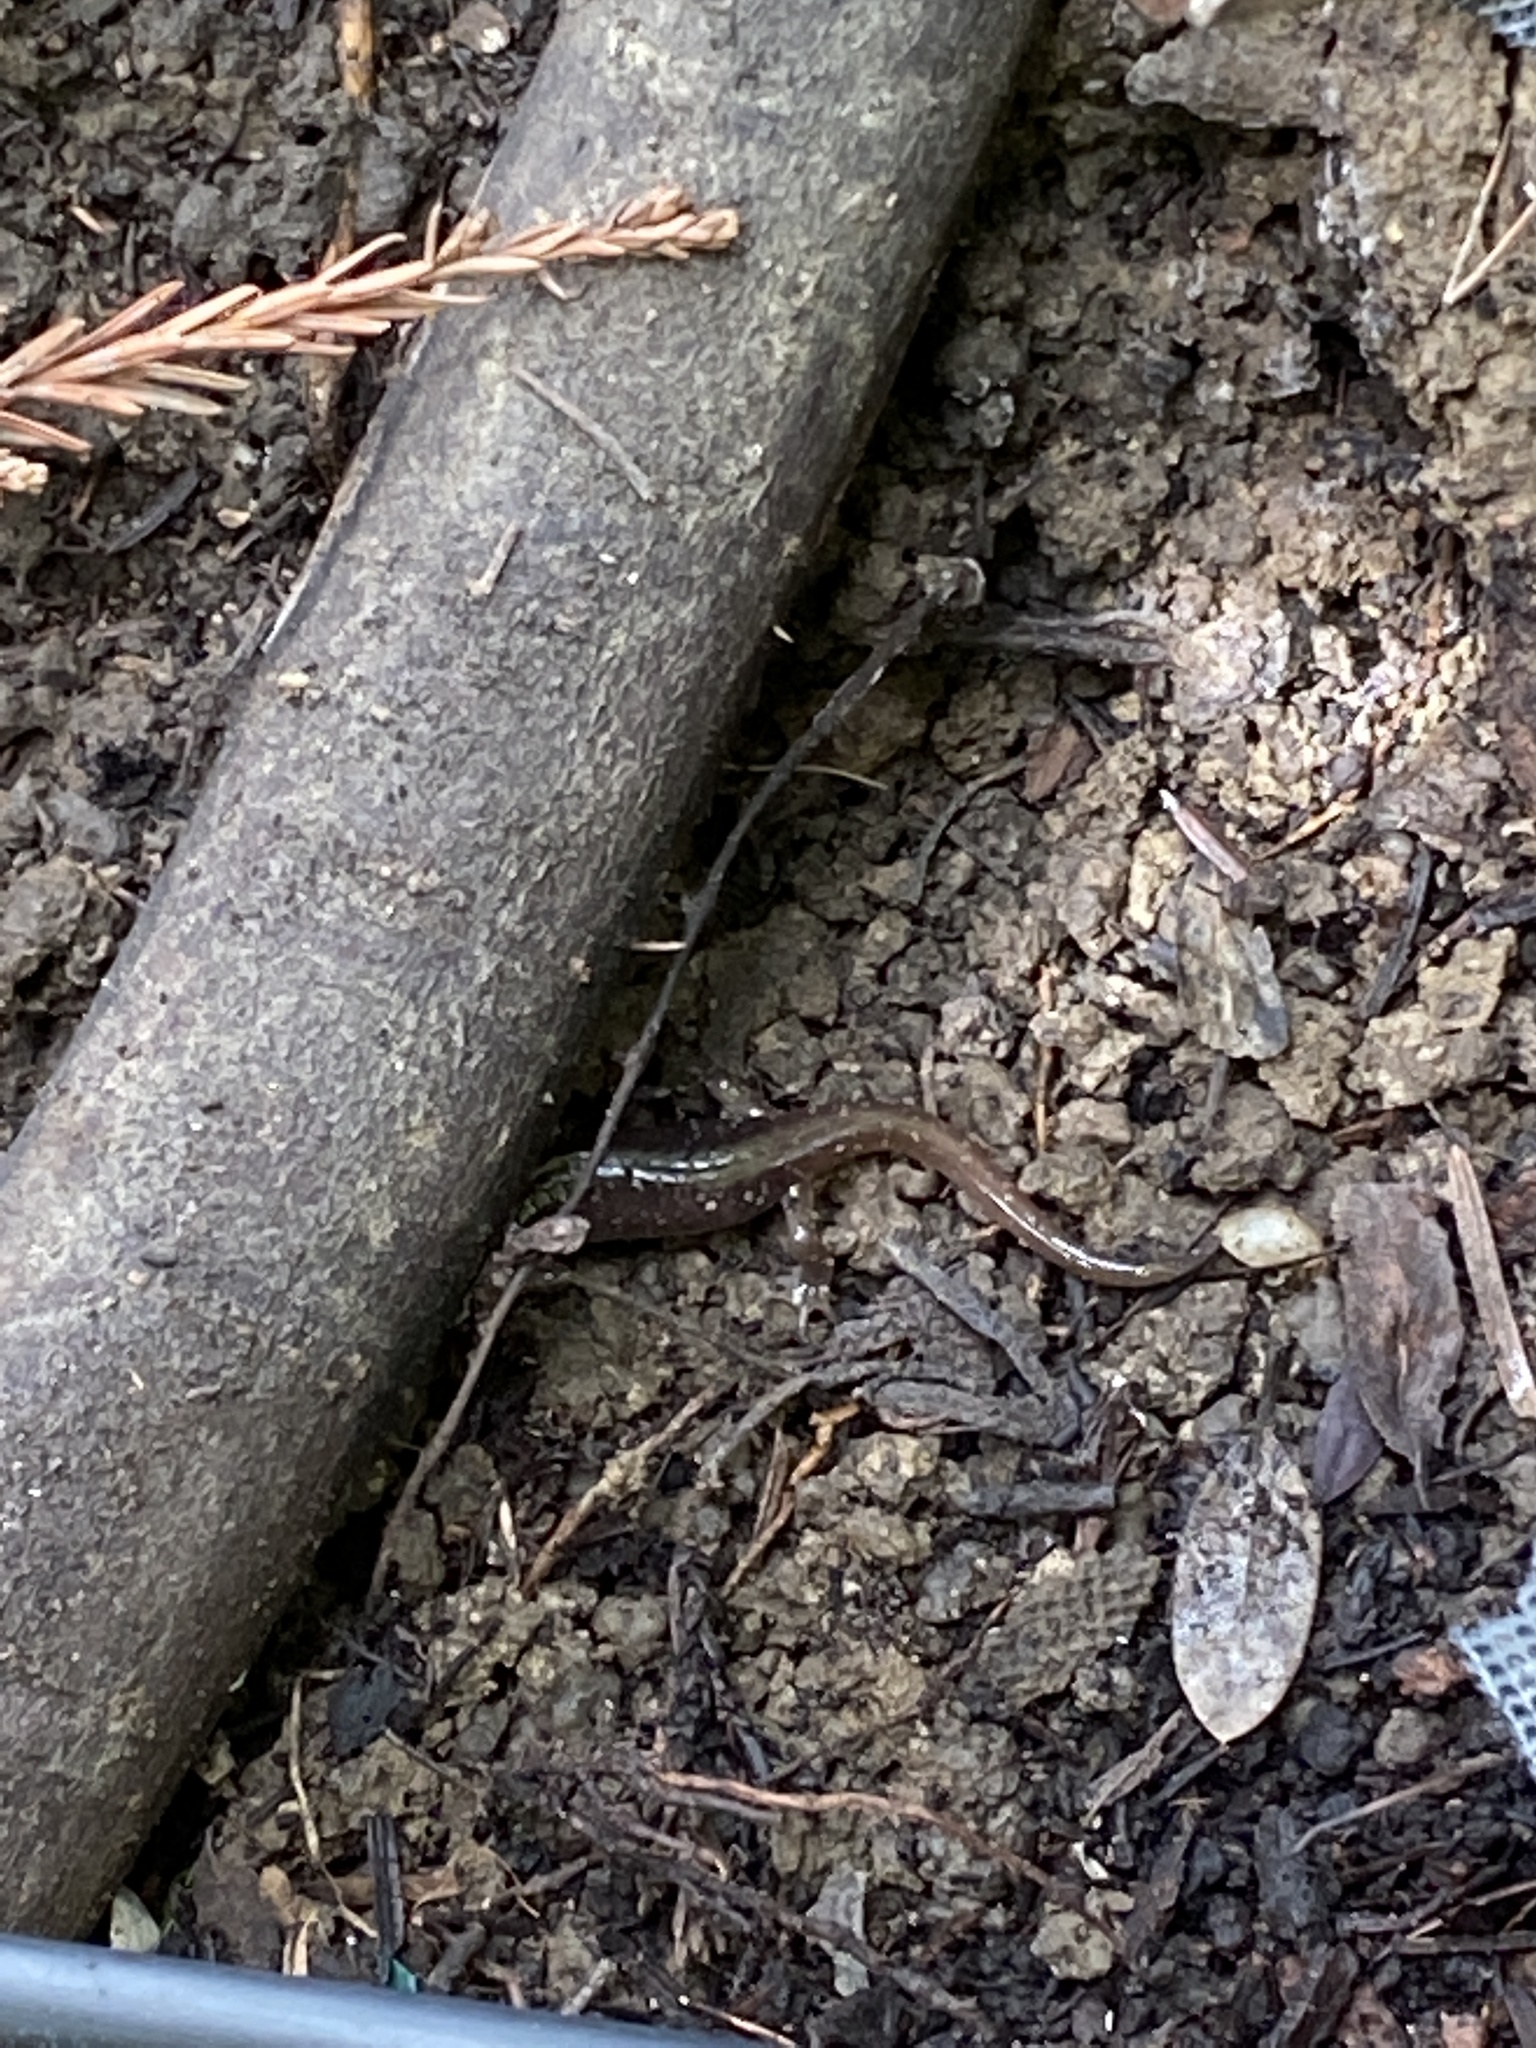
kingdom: Animalia
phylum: Chordata
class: Amphibia
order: Caudata
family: Plethodontidae
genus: Aneides
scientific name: Aneides lugubris
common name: Arboreal salamander
